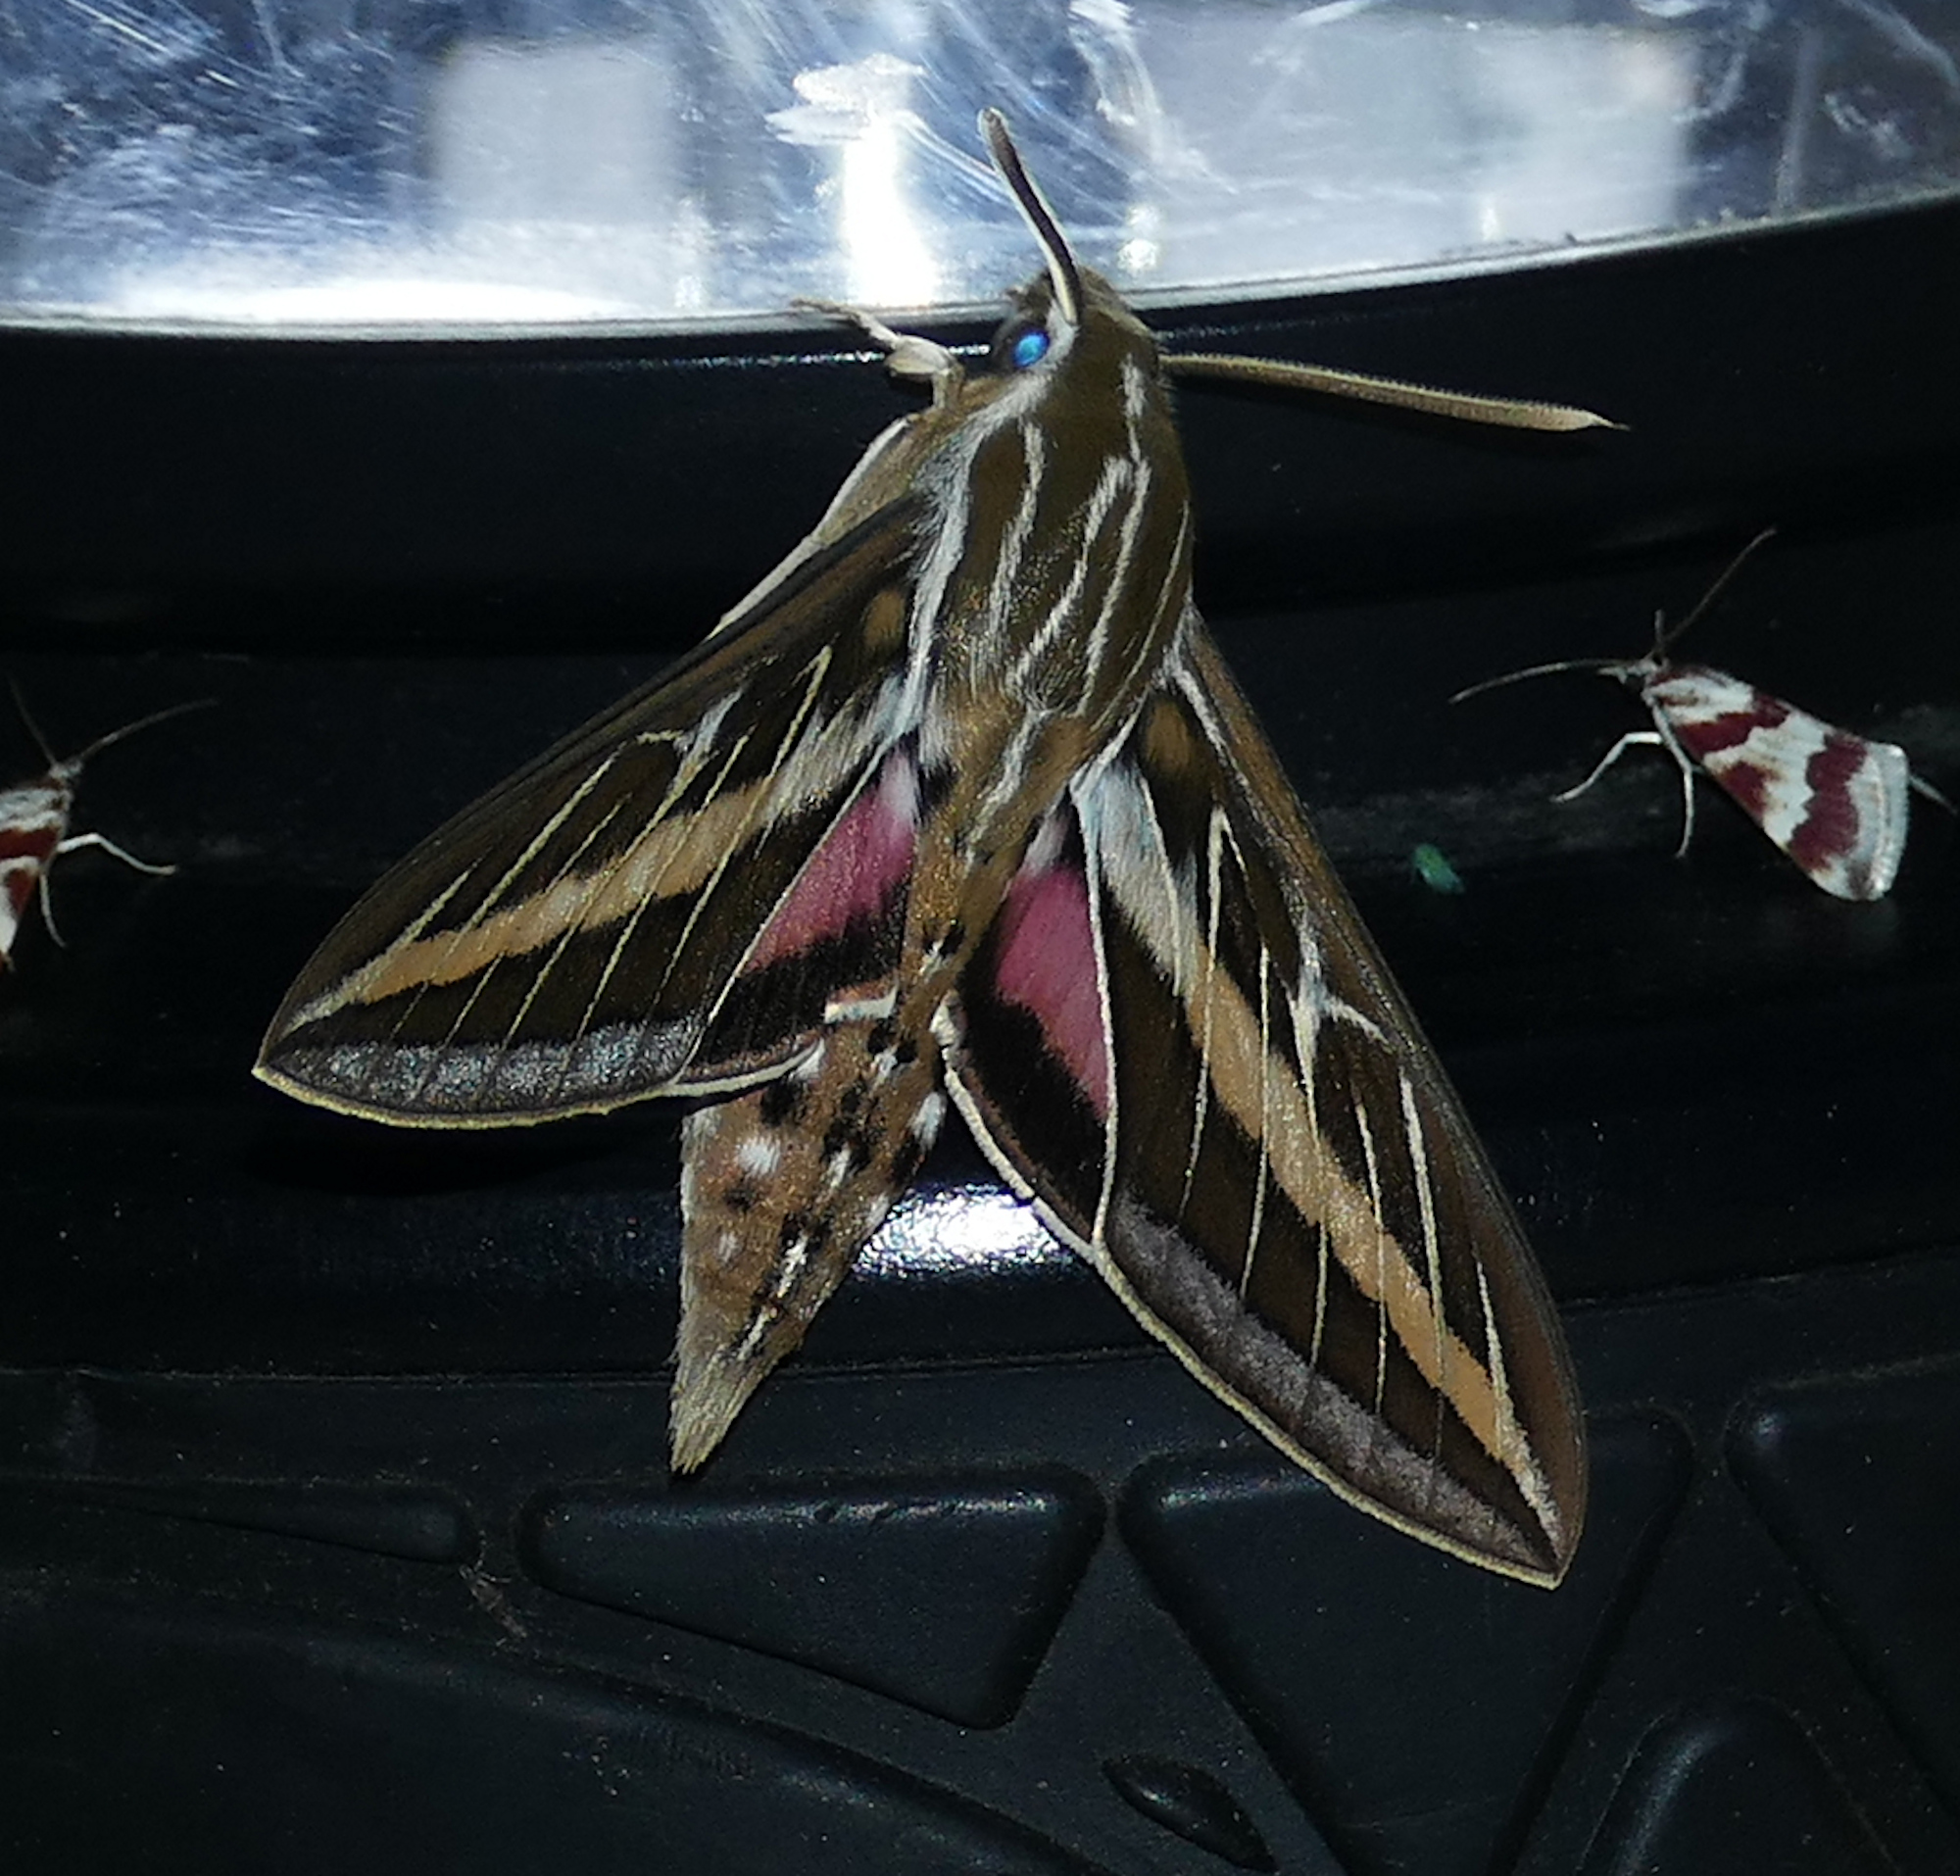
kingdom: Animalia
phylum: Arthropoda
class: Insecta
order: Lepidoptera
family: Sphingidae
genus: Hyles
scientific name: Hyles lineata
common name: White-lined sphinx
